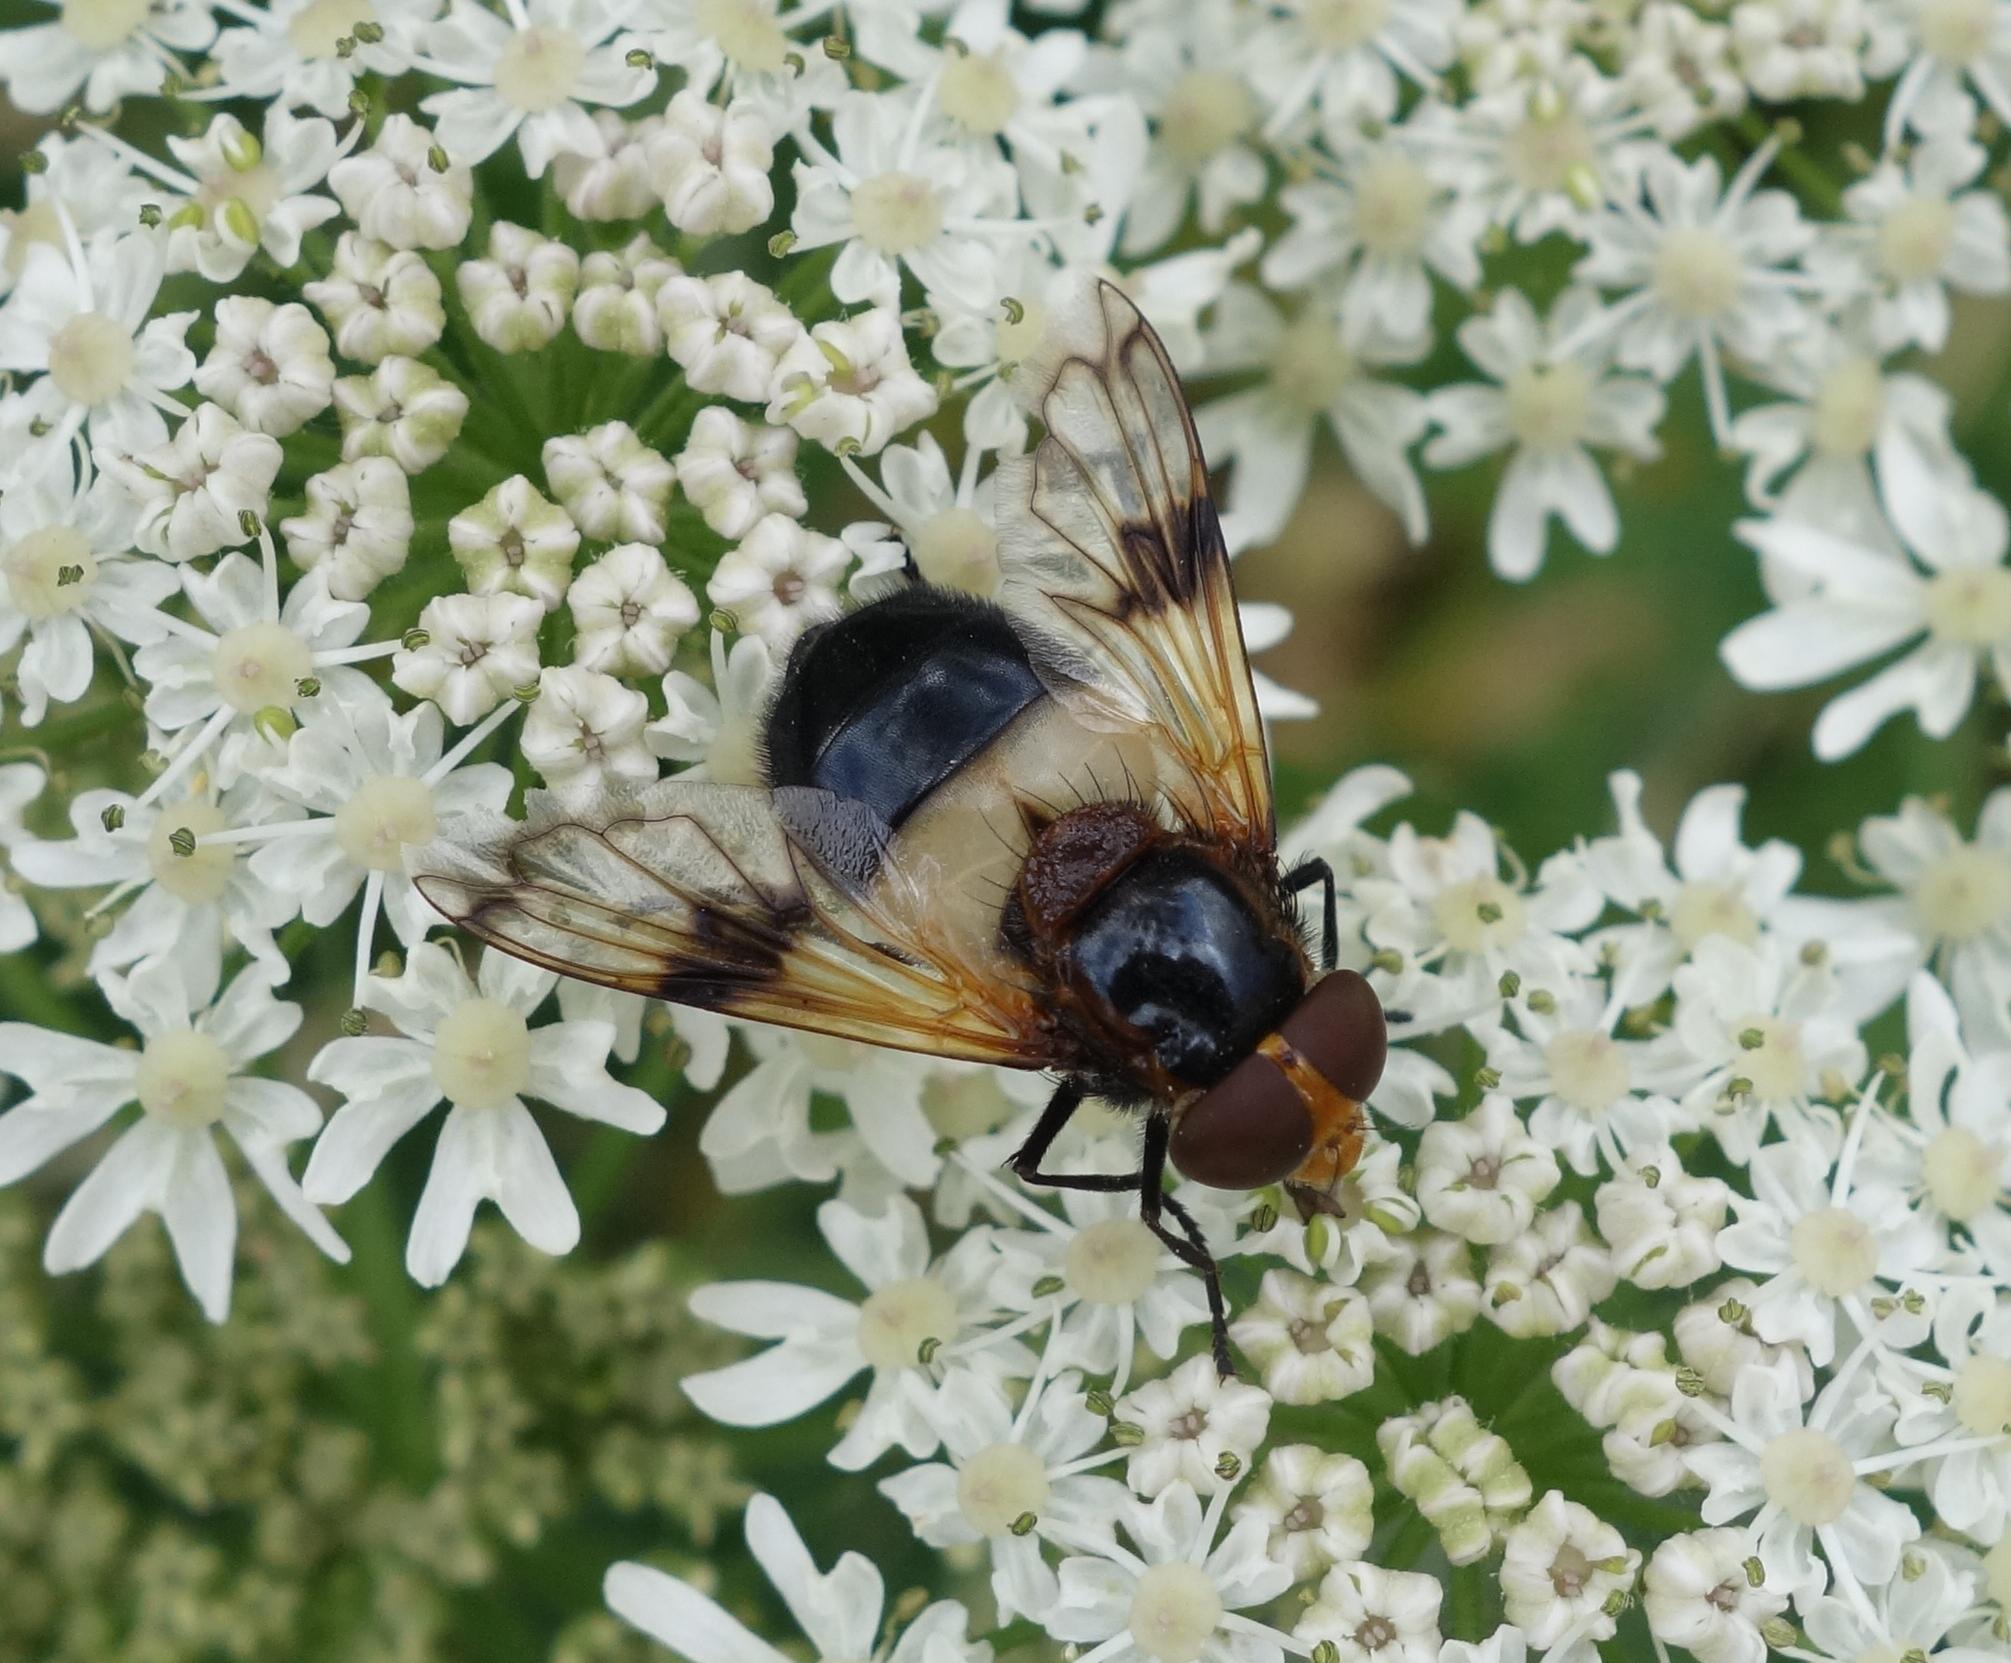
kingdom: Animalia
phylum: Arthropoda
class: Insecta
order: Diptera
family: Syrphidae
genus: Volucella
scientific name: Volucella pellucens
